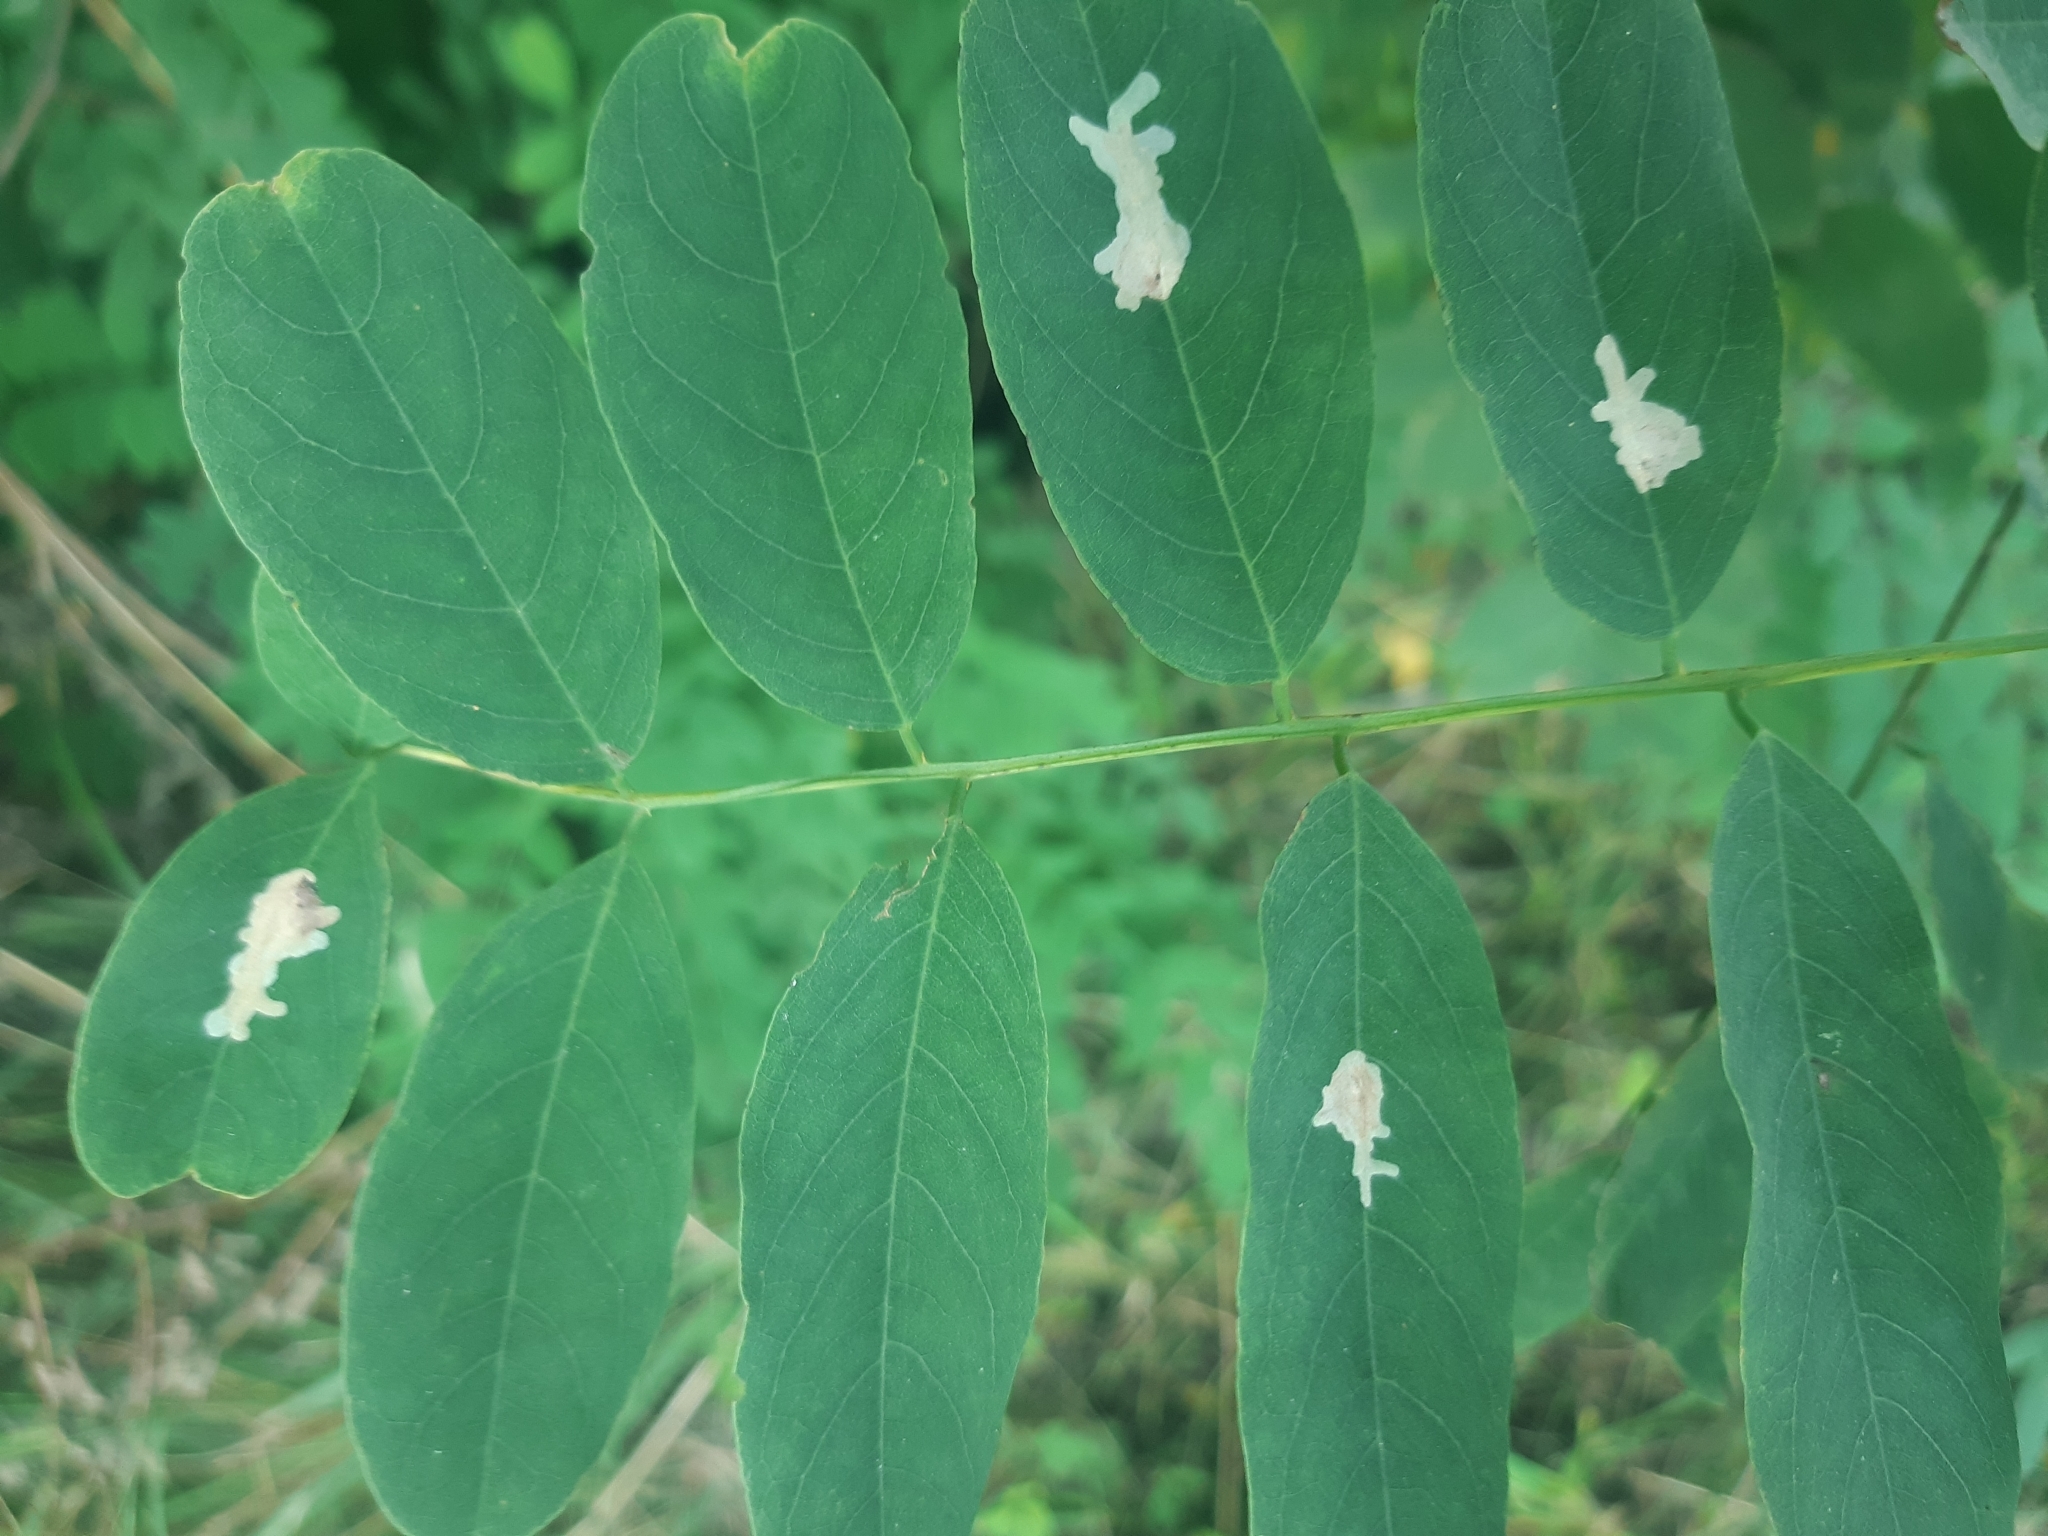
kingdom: Animalia
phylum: Arthropoda
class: Insecta
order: Lepidoptera
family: Gracillariidae
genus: Parectopa
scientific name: Parectopa robiniella
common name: Locust digitate leafminer
